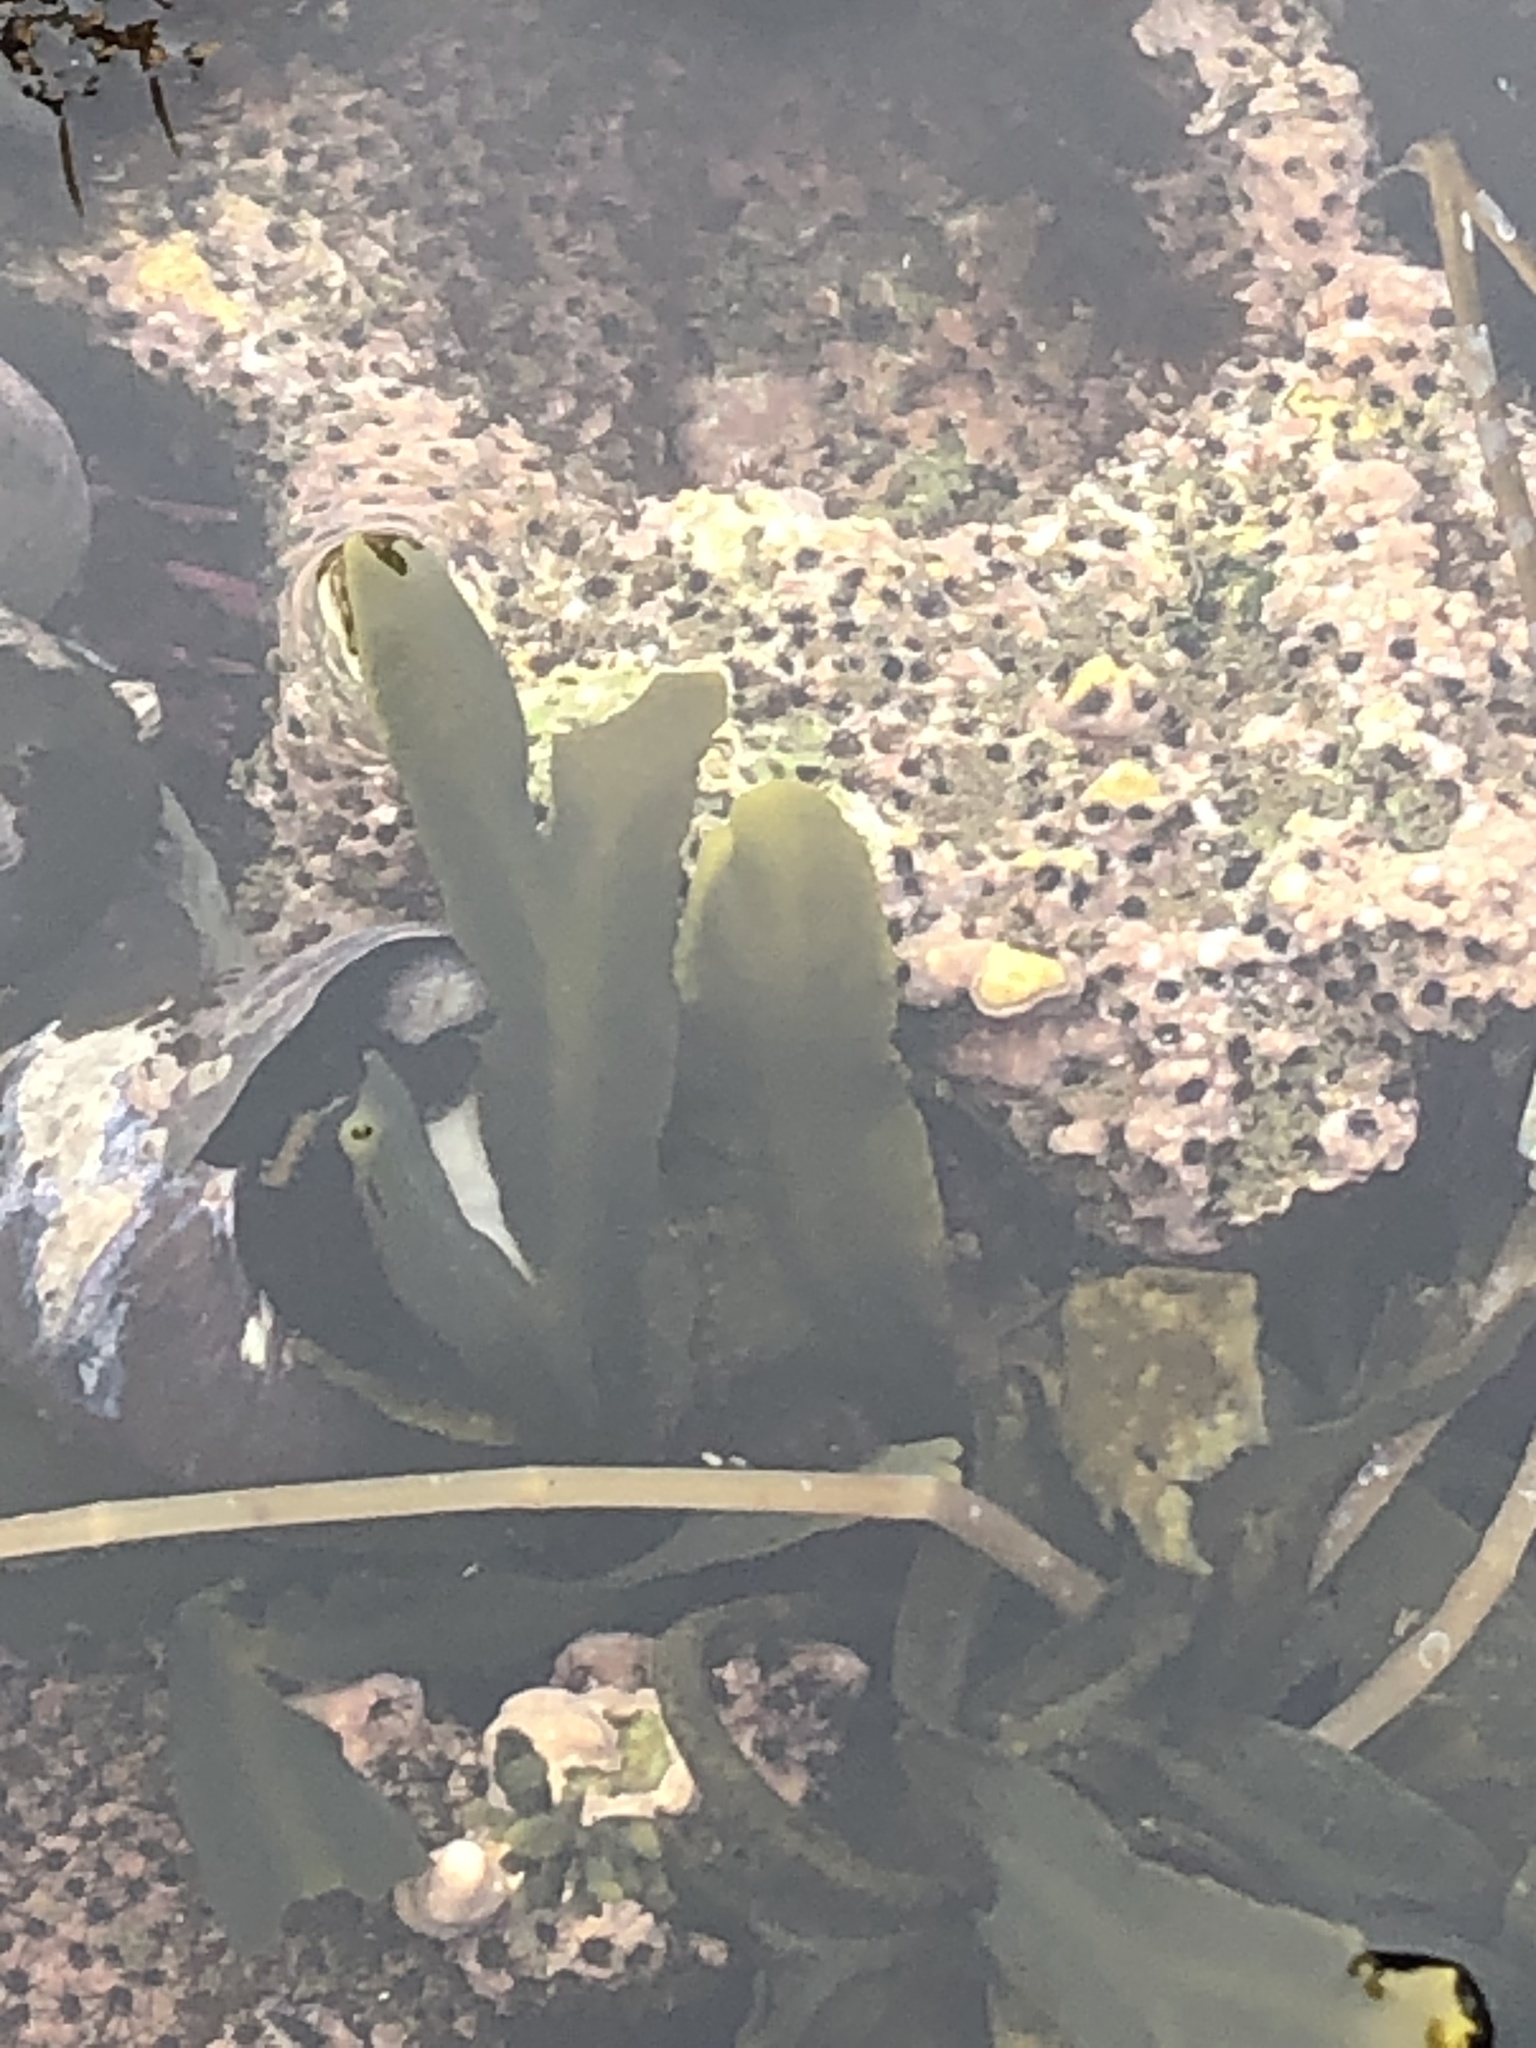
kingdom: Chromista
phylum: Ochrophyta
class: Phaeophyceae
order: Fucales
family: Fucaceae
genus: Fucus
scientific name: Fucus distichus
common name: Rockweed
